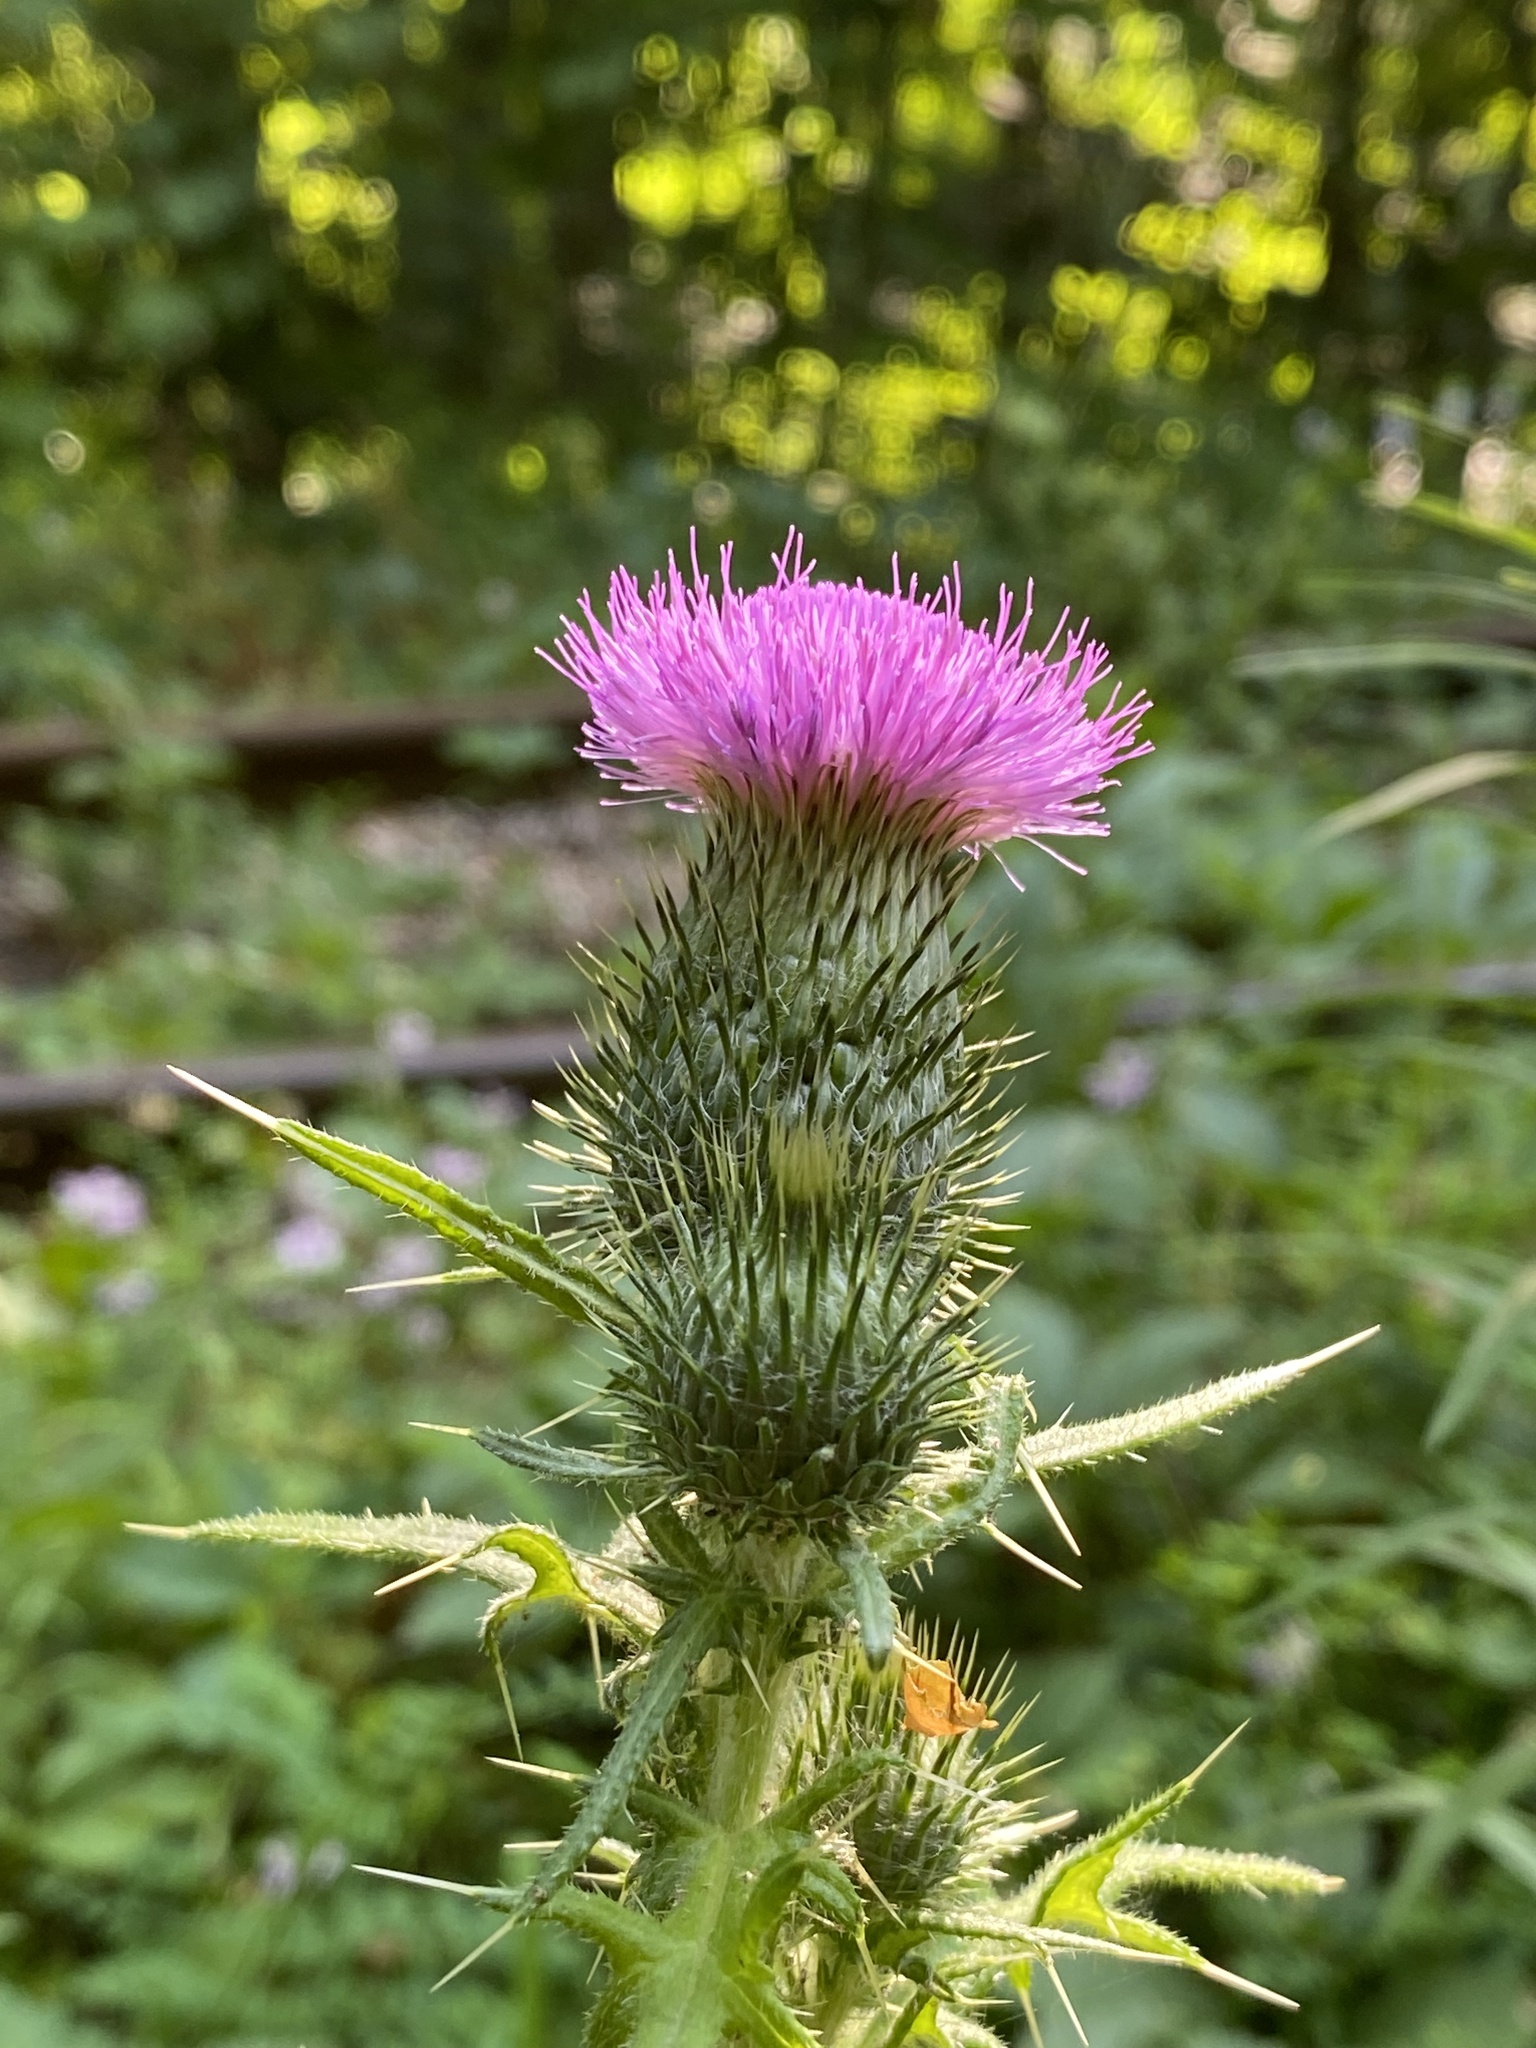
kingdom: Plantae
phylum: Tracheophyta
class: Magnoliopsida
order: Asterales
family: Asteraceae
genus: Cirsium
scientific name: Cirsium vulgare
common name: Bull thistle
